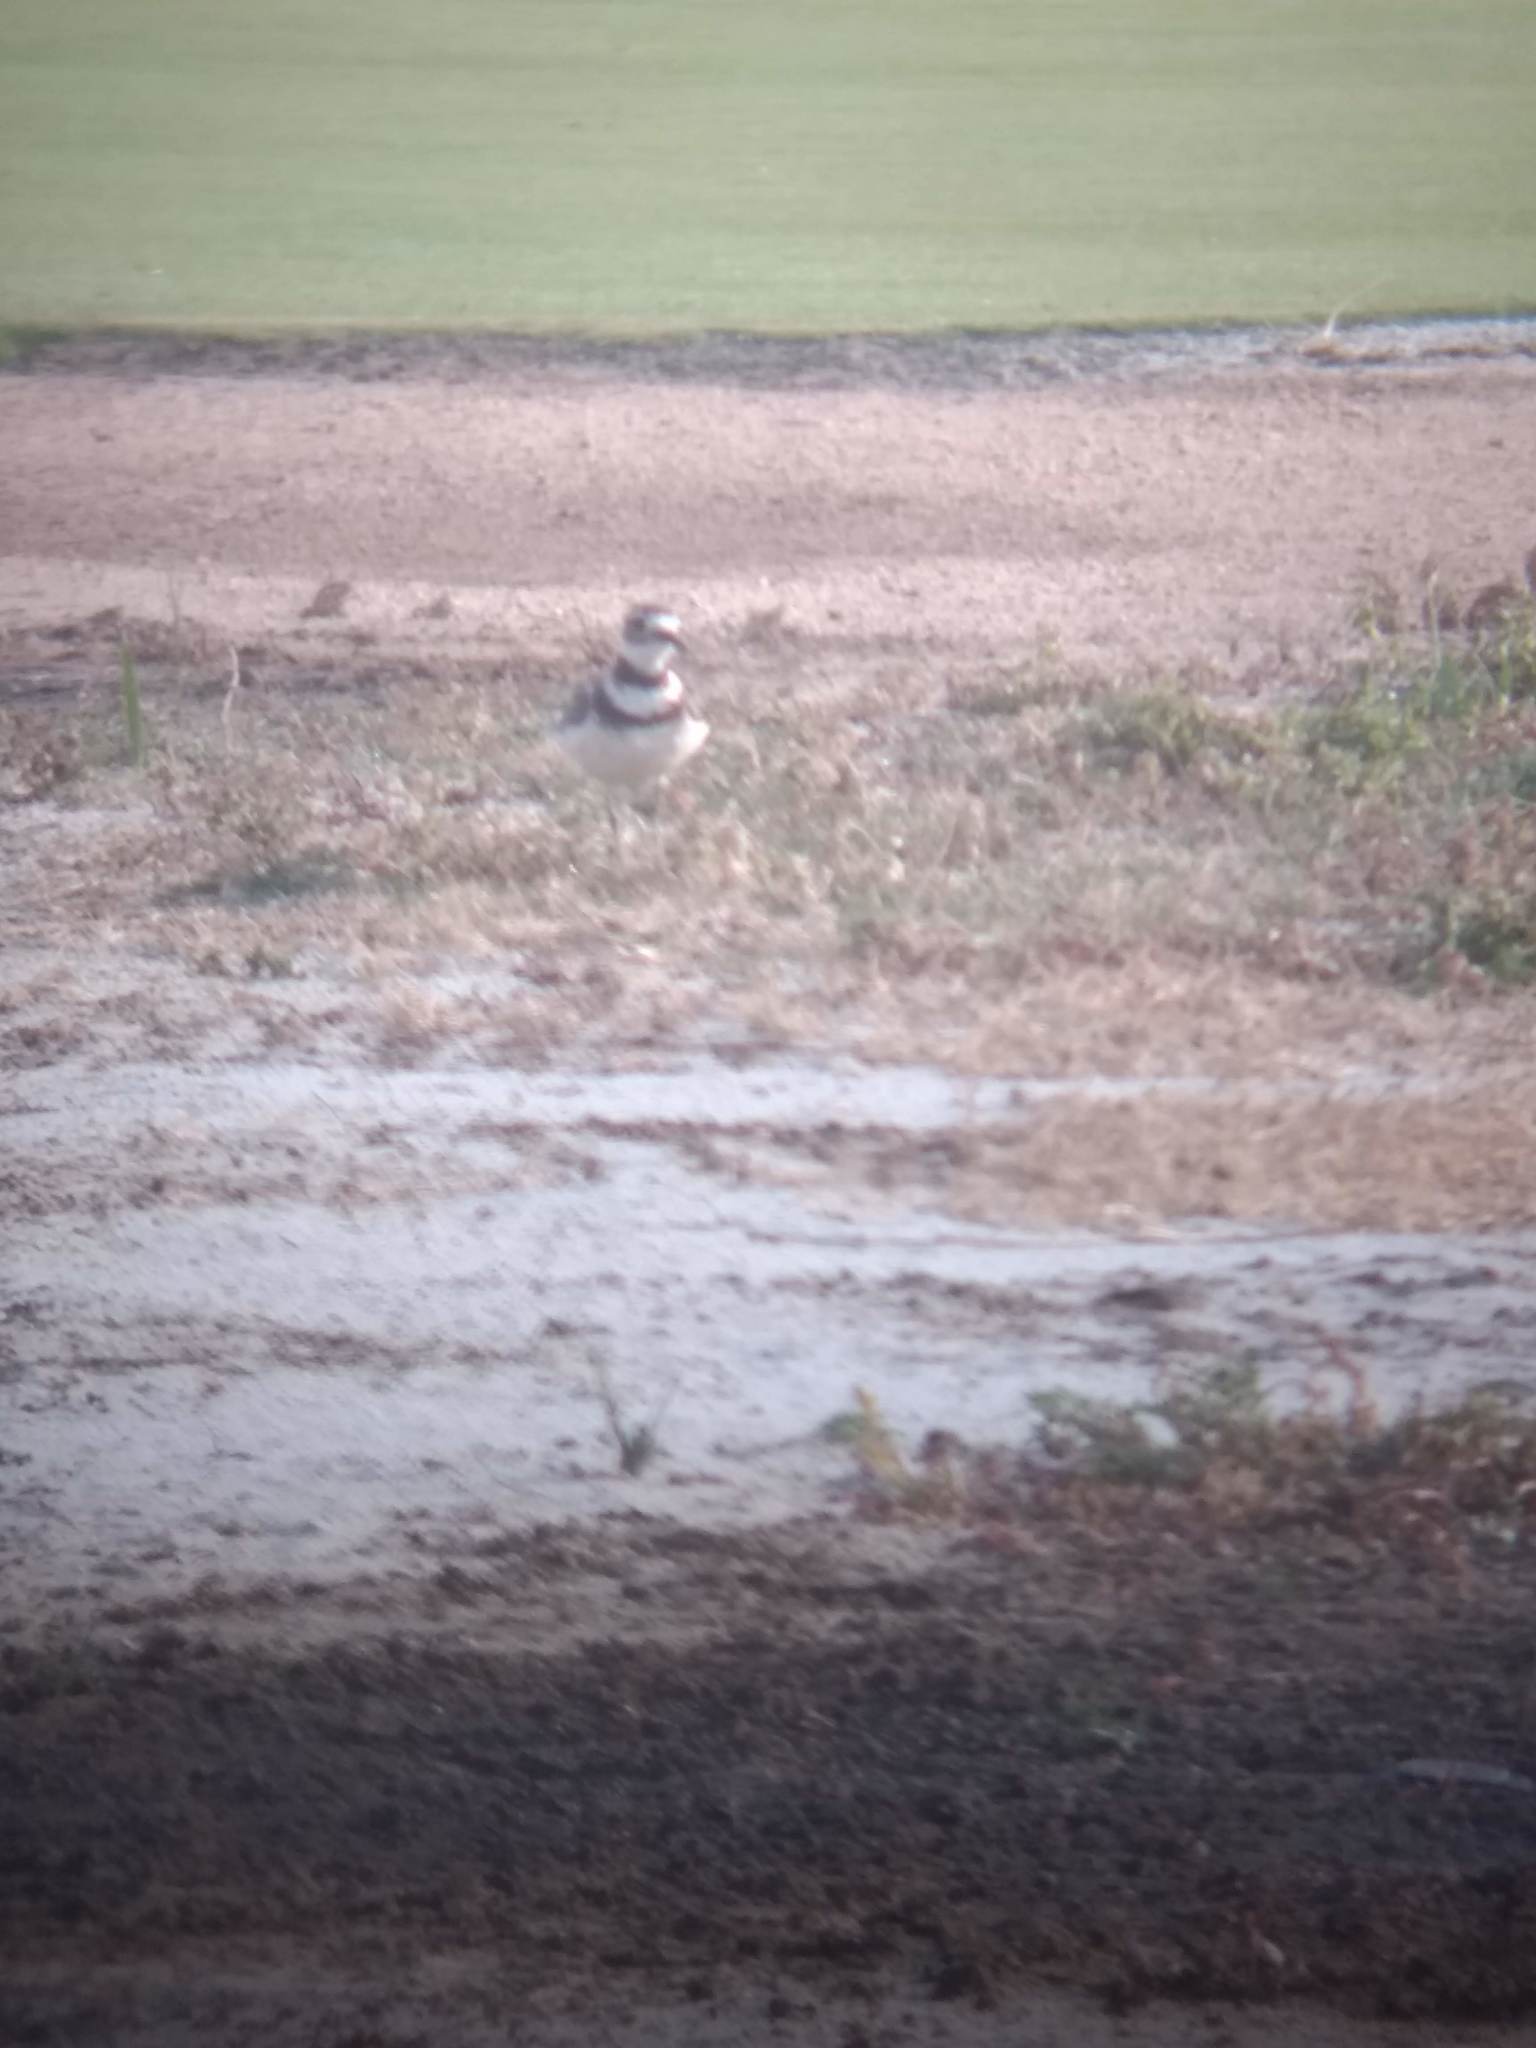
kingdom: Animalia
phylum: Chordata
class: Aves
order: Charadriiformes
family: Charadriidae
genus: Charadrius
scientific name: Charadrius vociferus
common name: Killdeer
